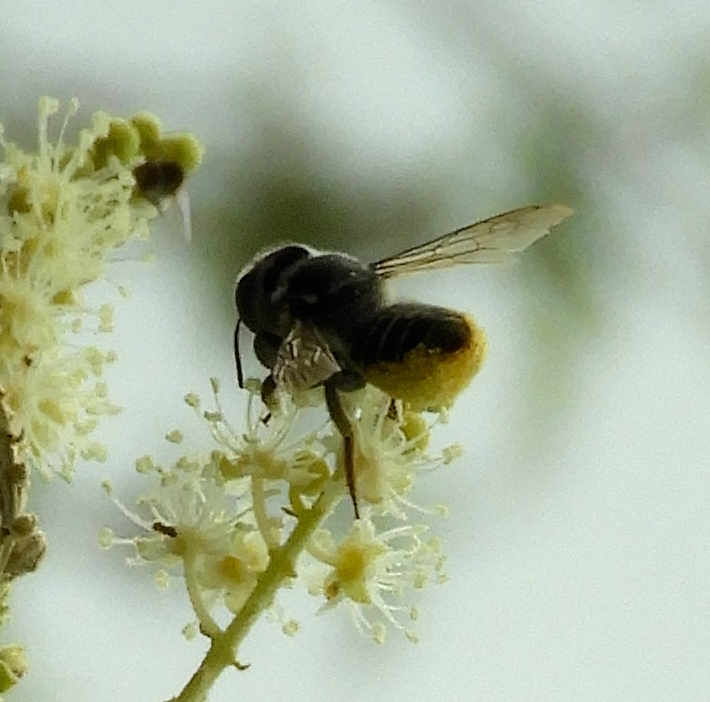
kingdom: Animalia
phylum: Arthropoda
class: Insecta
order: Hymenoptera
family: Megachilidae
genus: Megachile
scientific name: Megachile
